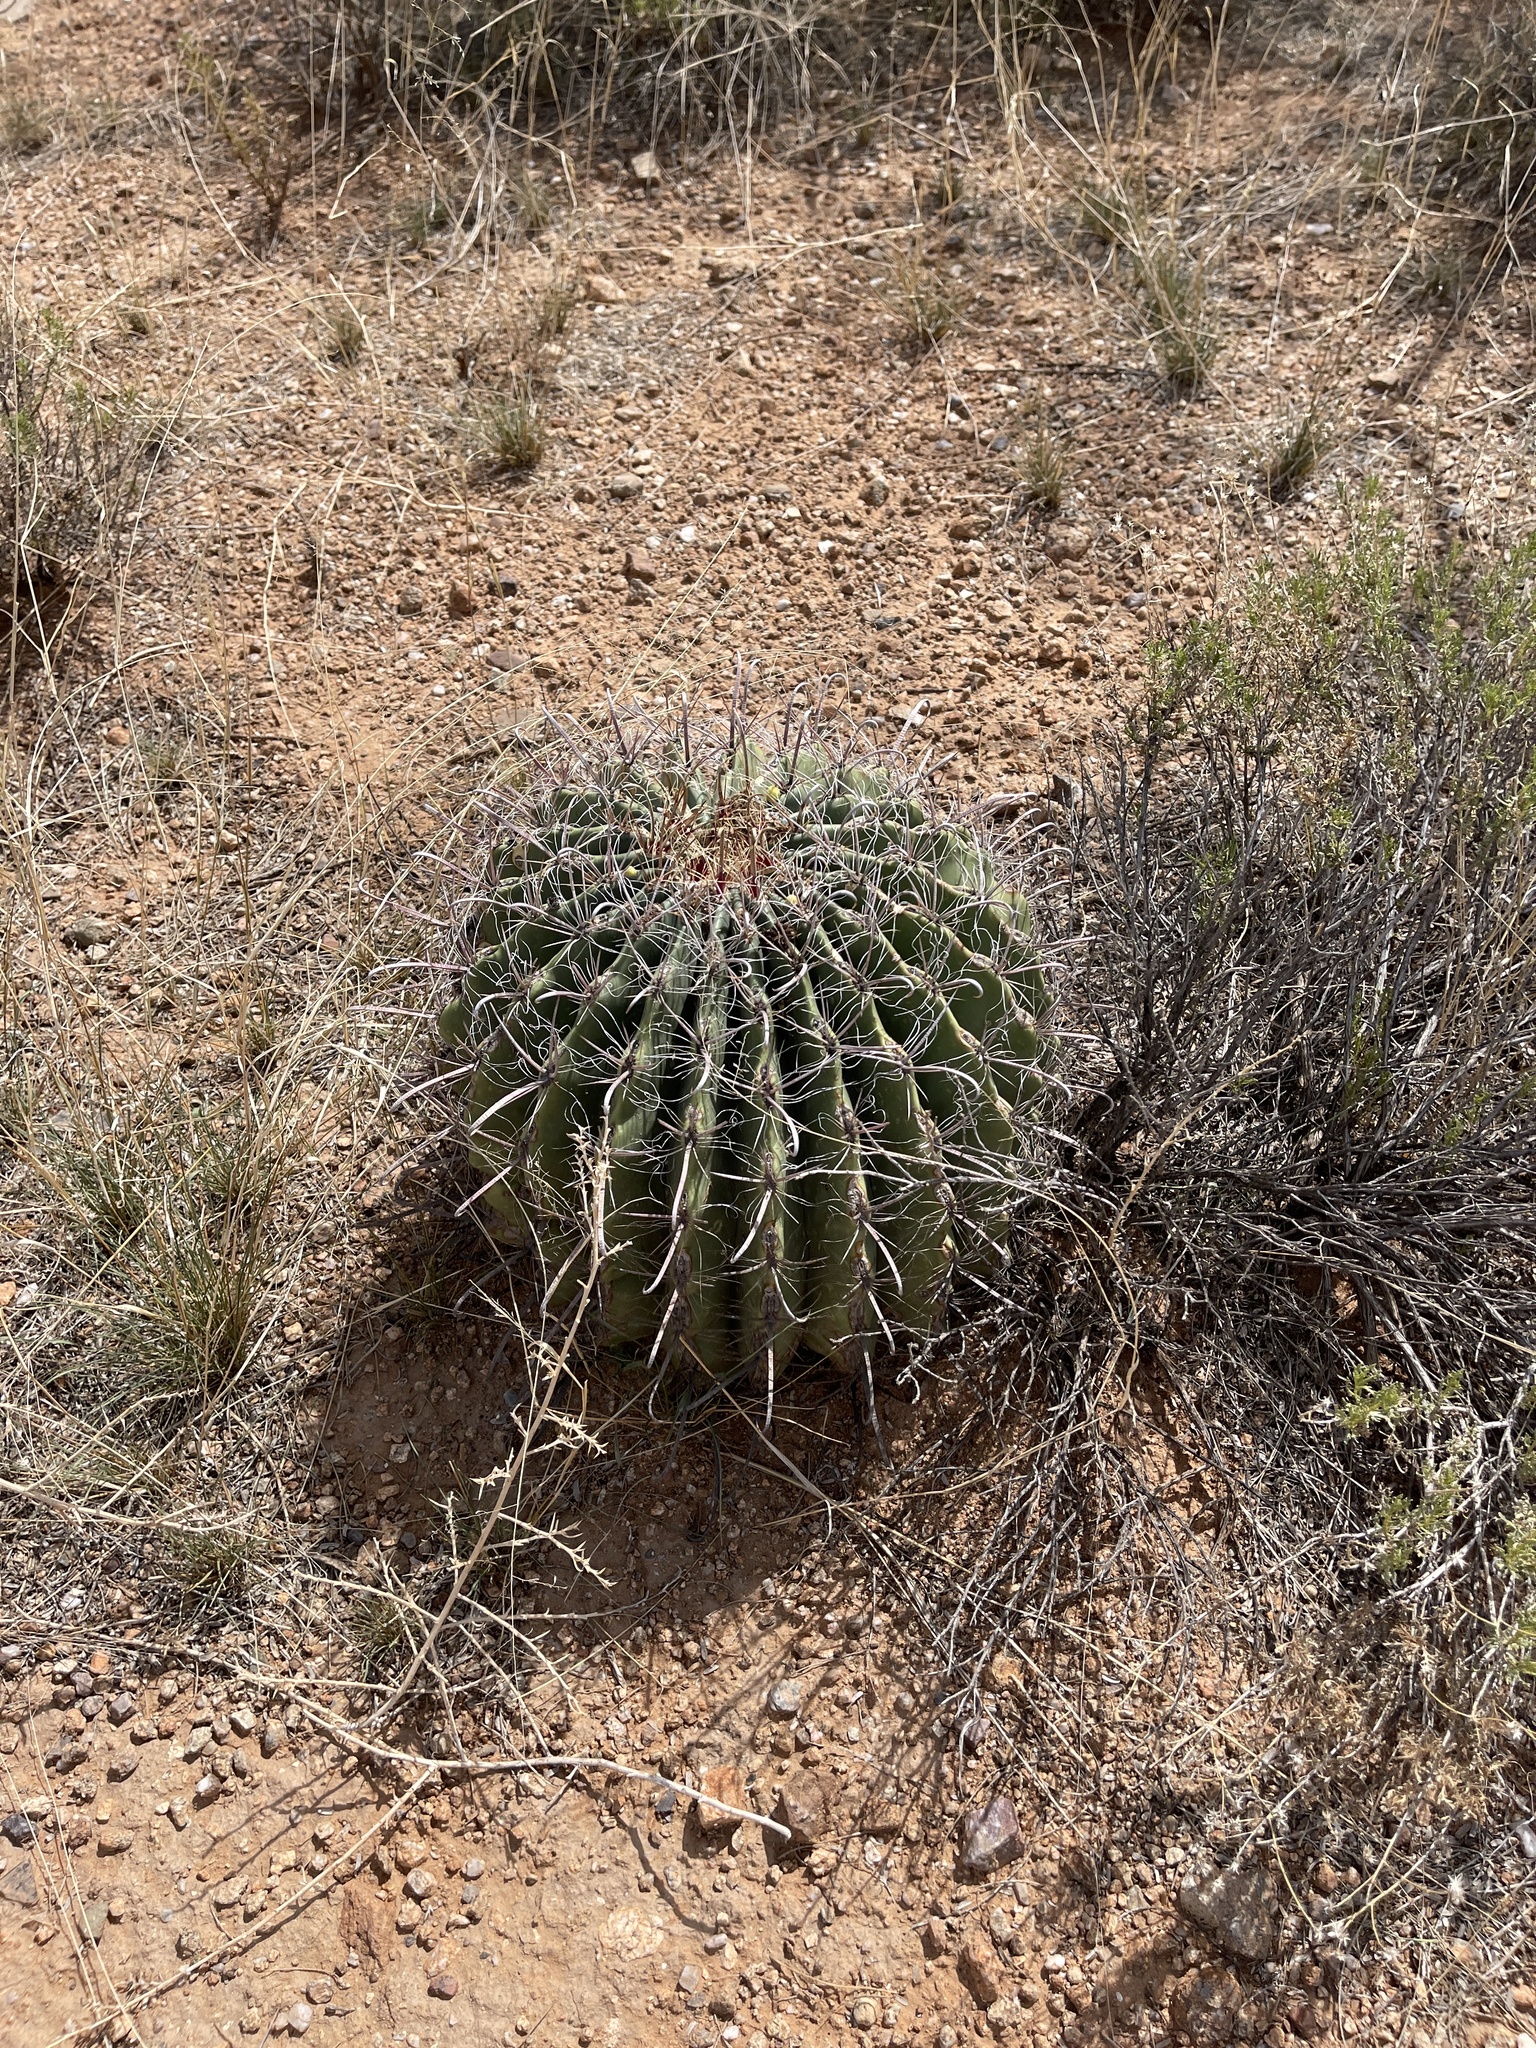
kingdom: Plantae
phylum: Tracheophyta
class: Magnoliopsida
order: Caryophyllales
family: Cactaceae
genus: Ferocactus
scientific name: Ferocactus wislizeni
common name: Candy barrel cactus
